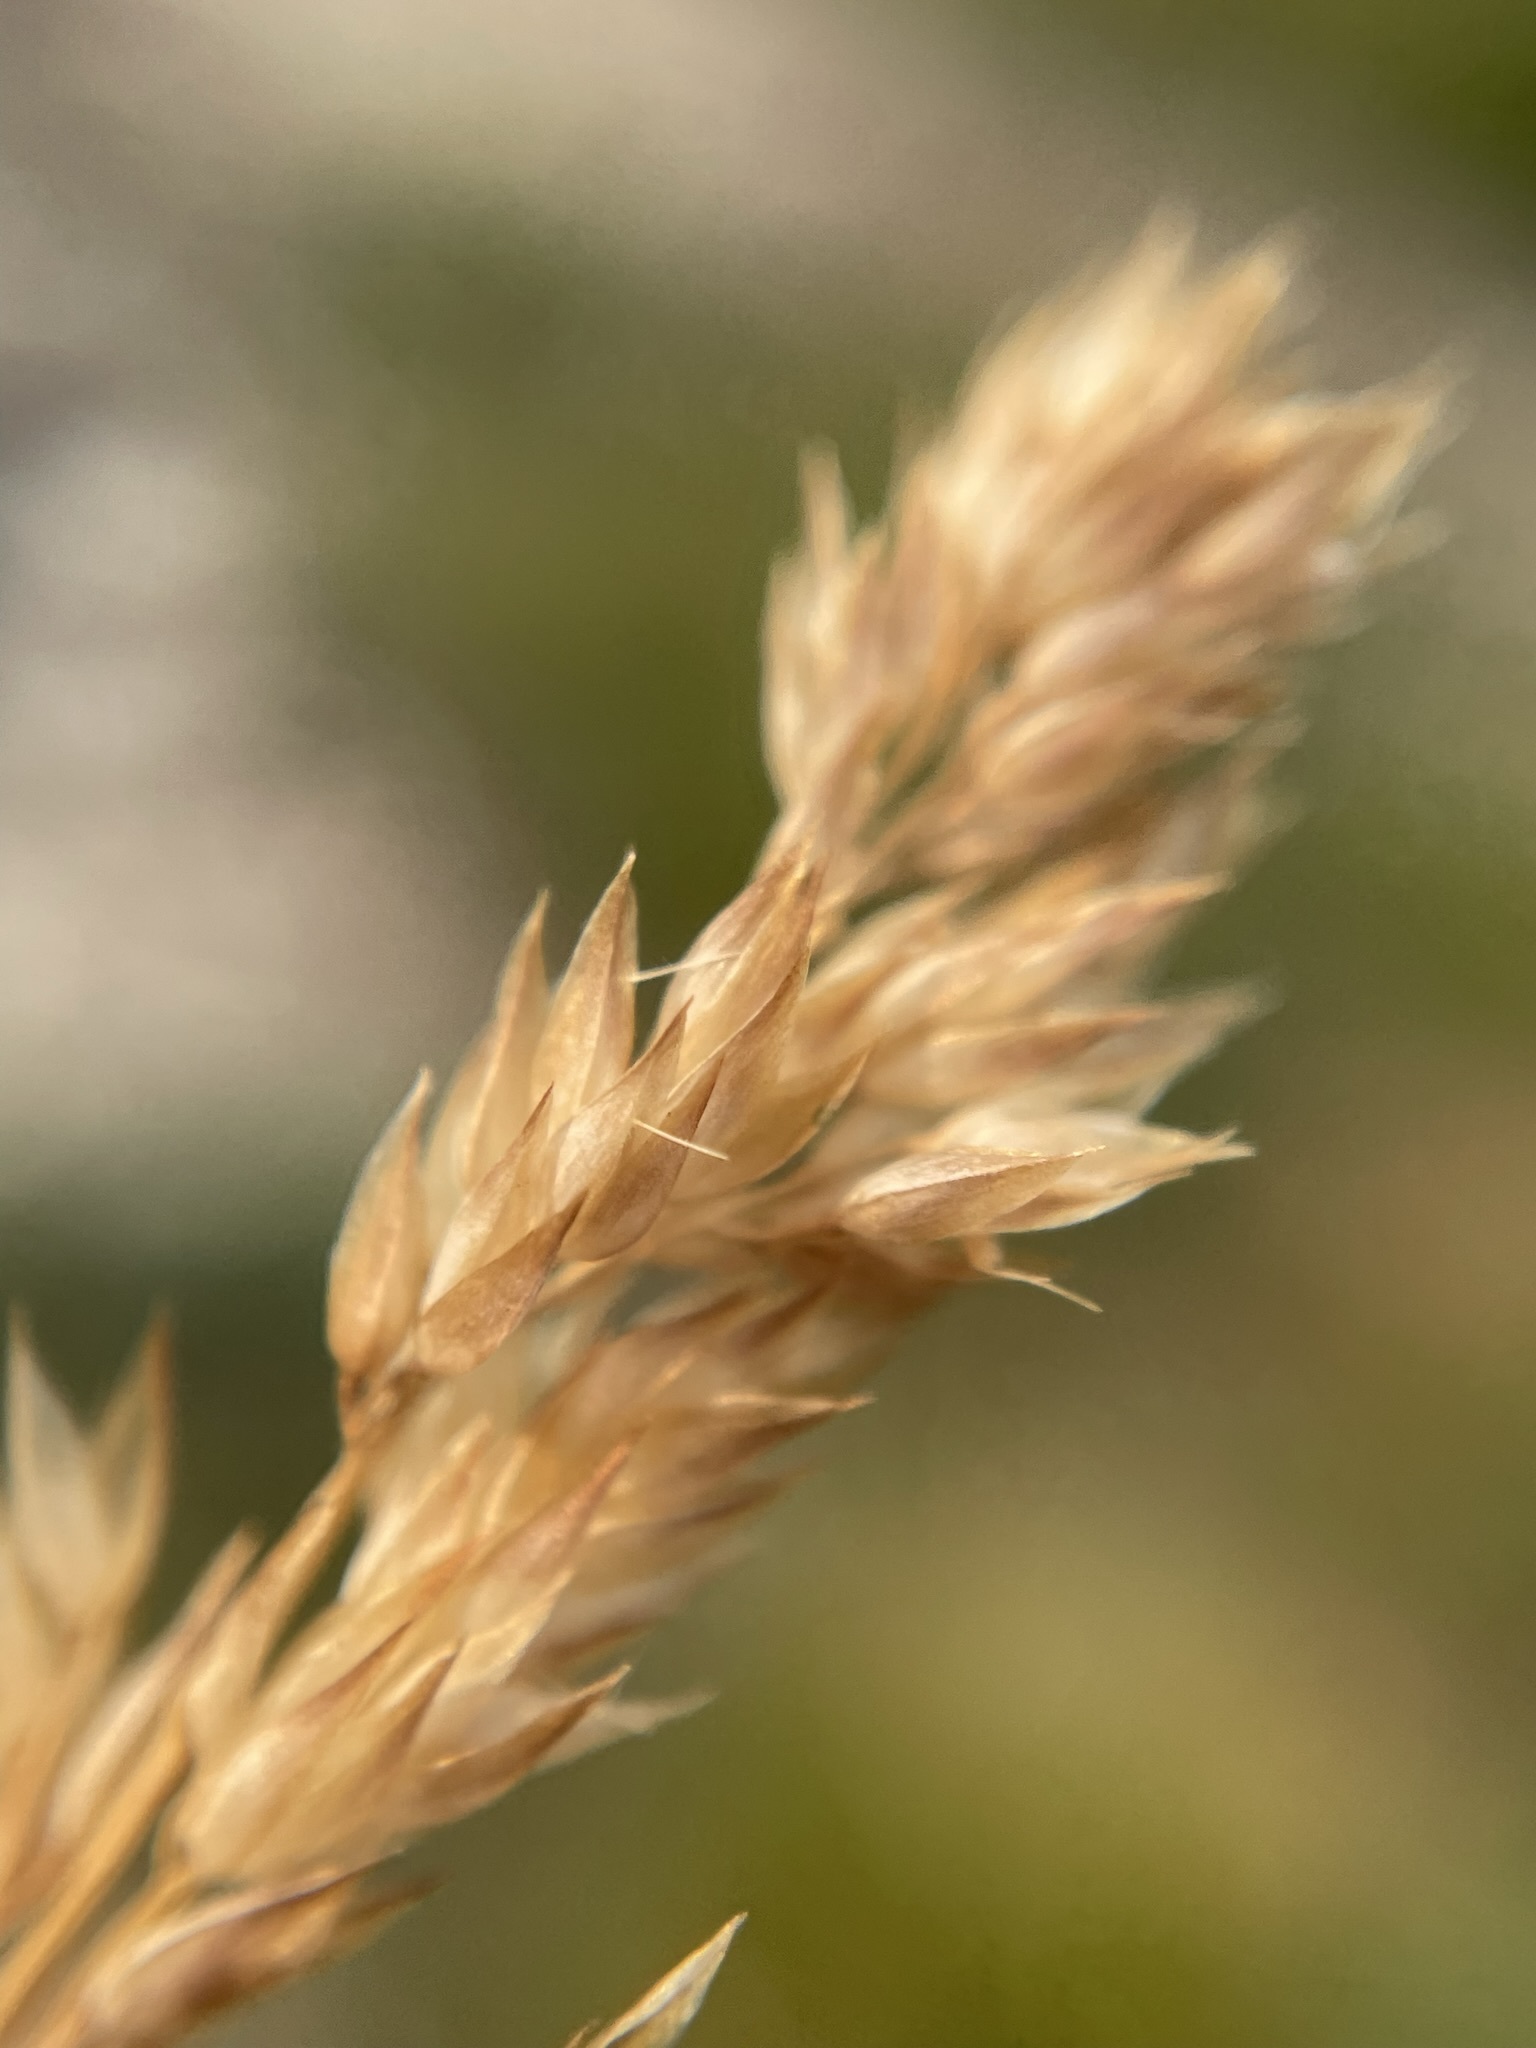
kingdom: Plantae
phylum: Tracheophyta
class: Liliopsida
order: Poales
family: Poaceae
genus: Vahlodea
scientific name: Vahlodea atropurpurea
